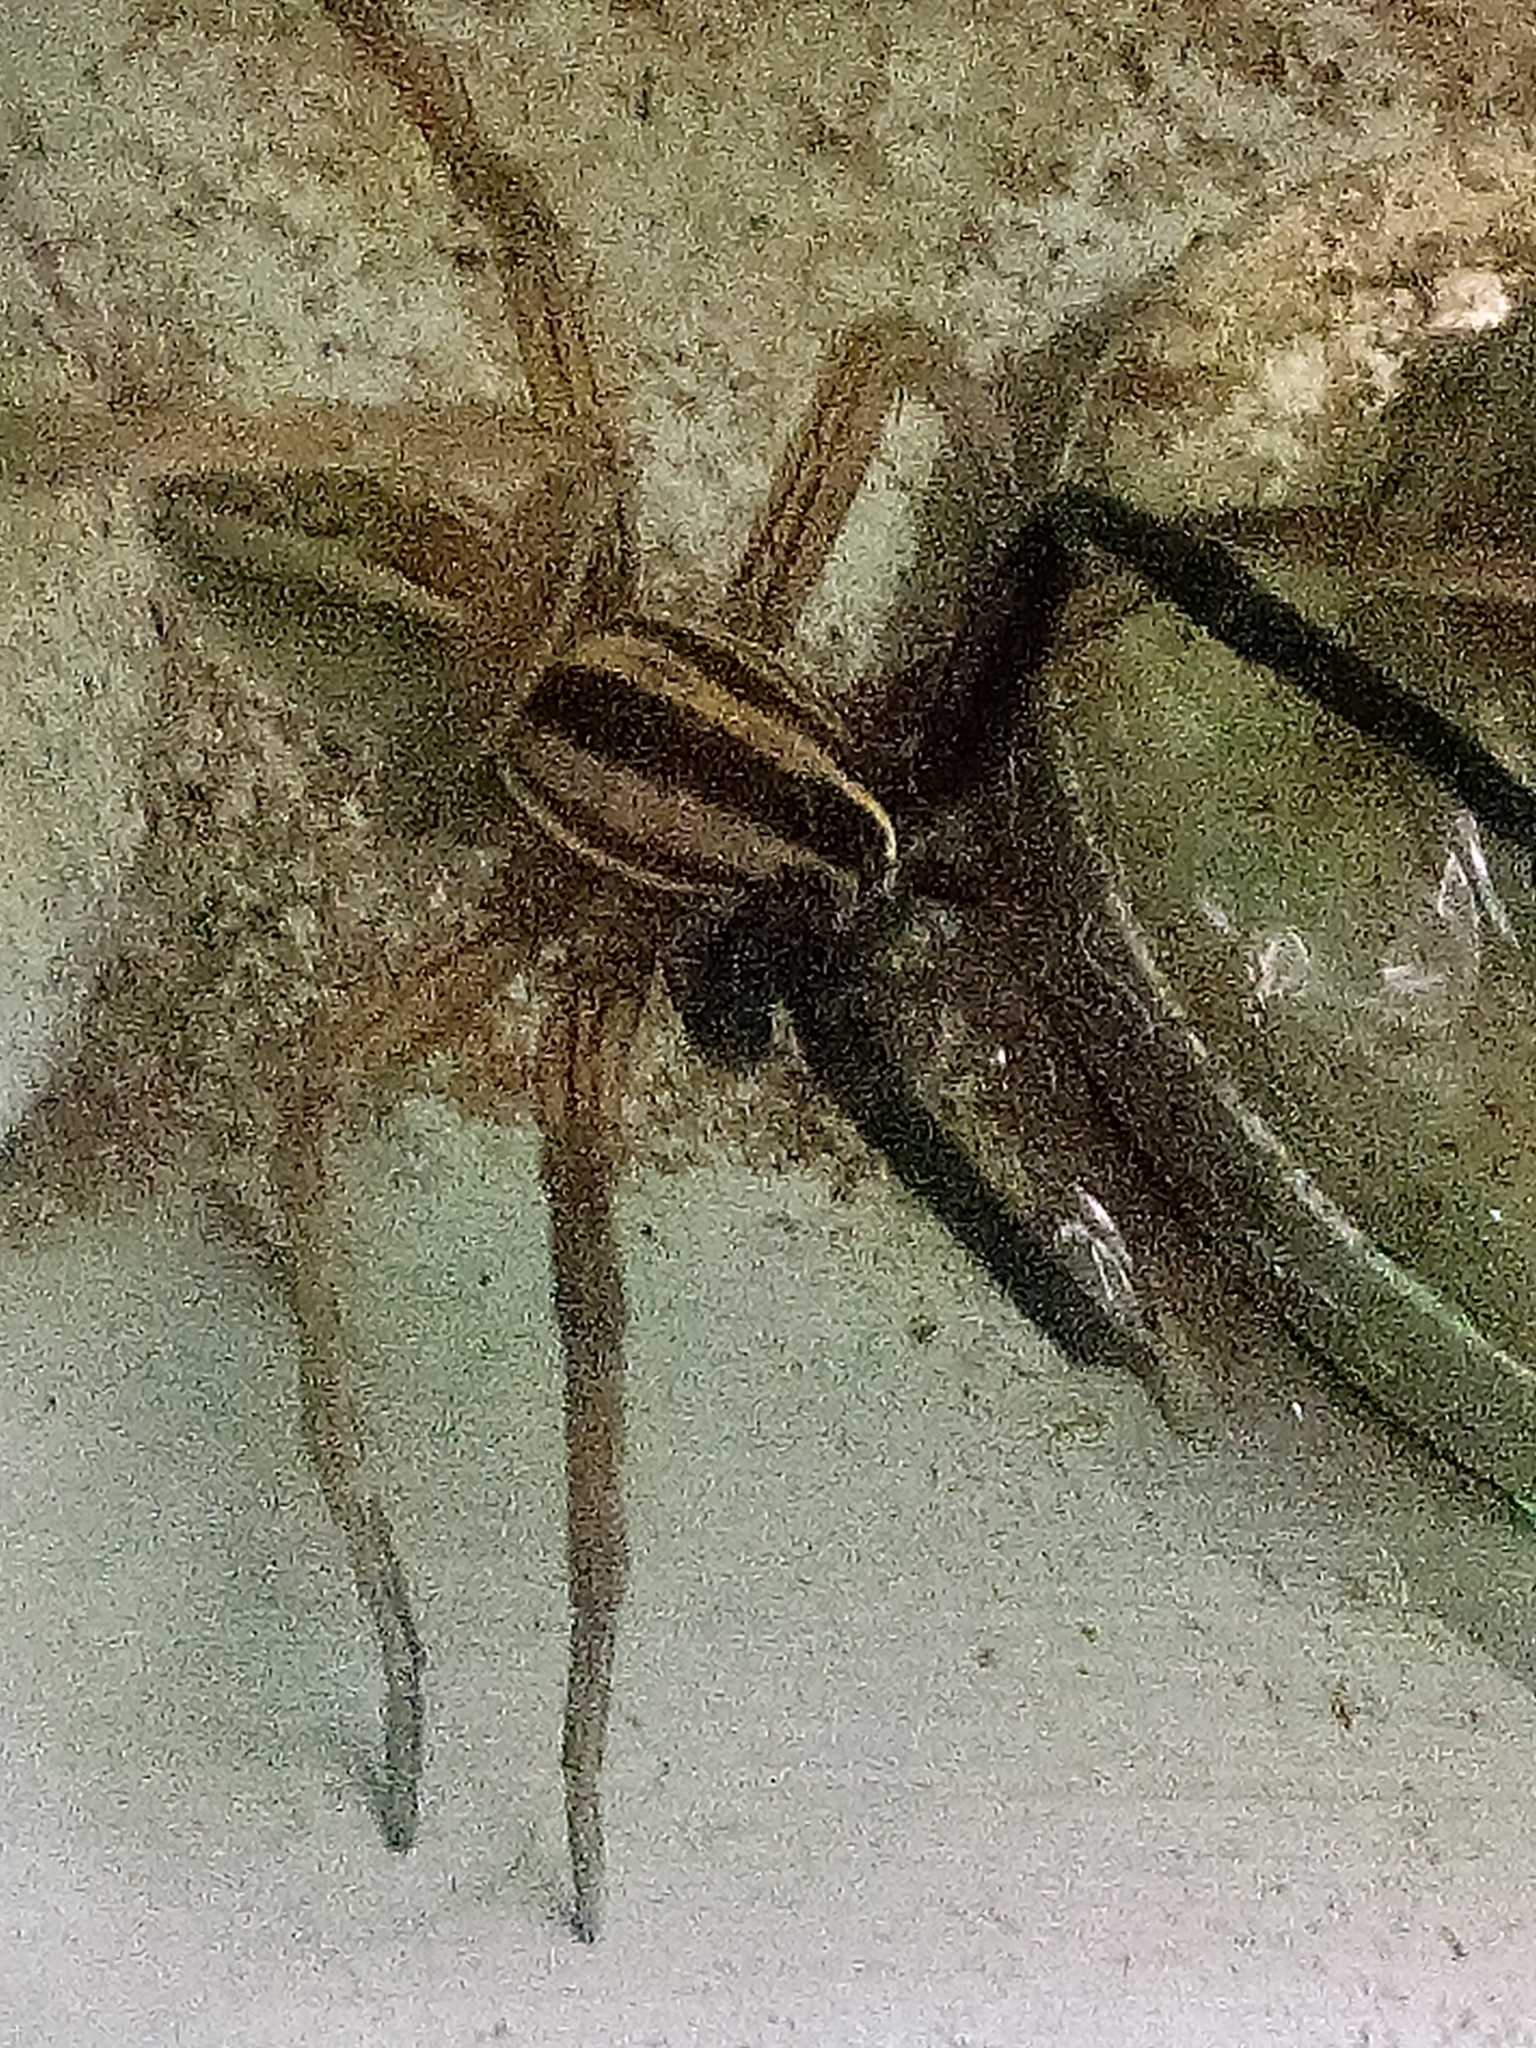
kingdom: Animalia
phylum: Arthropoda
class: Arachnida
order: Araneae
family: Lycosidae
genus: Rabidosa
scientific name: Rabidosa rabida
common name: Rabid wolf spider
